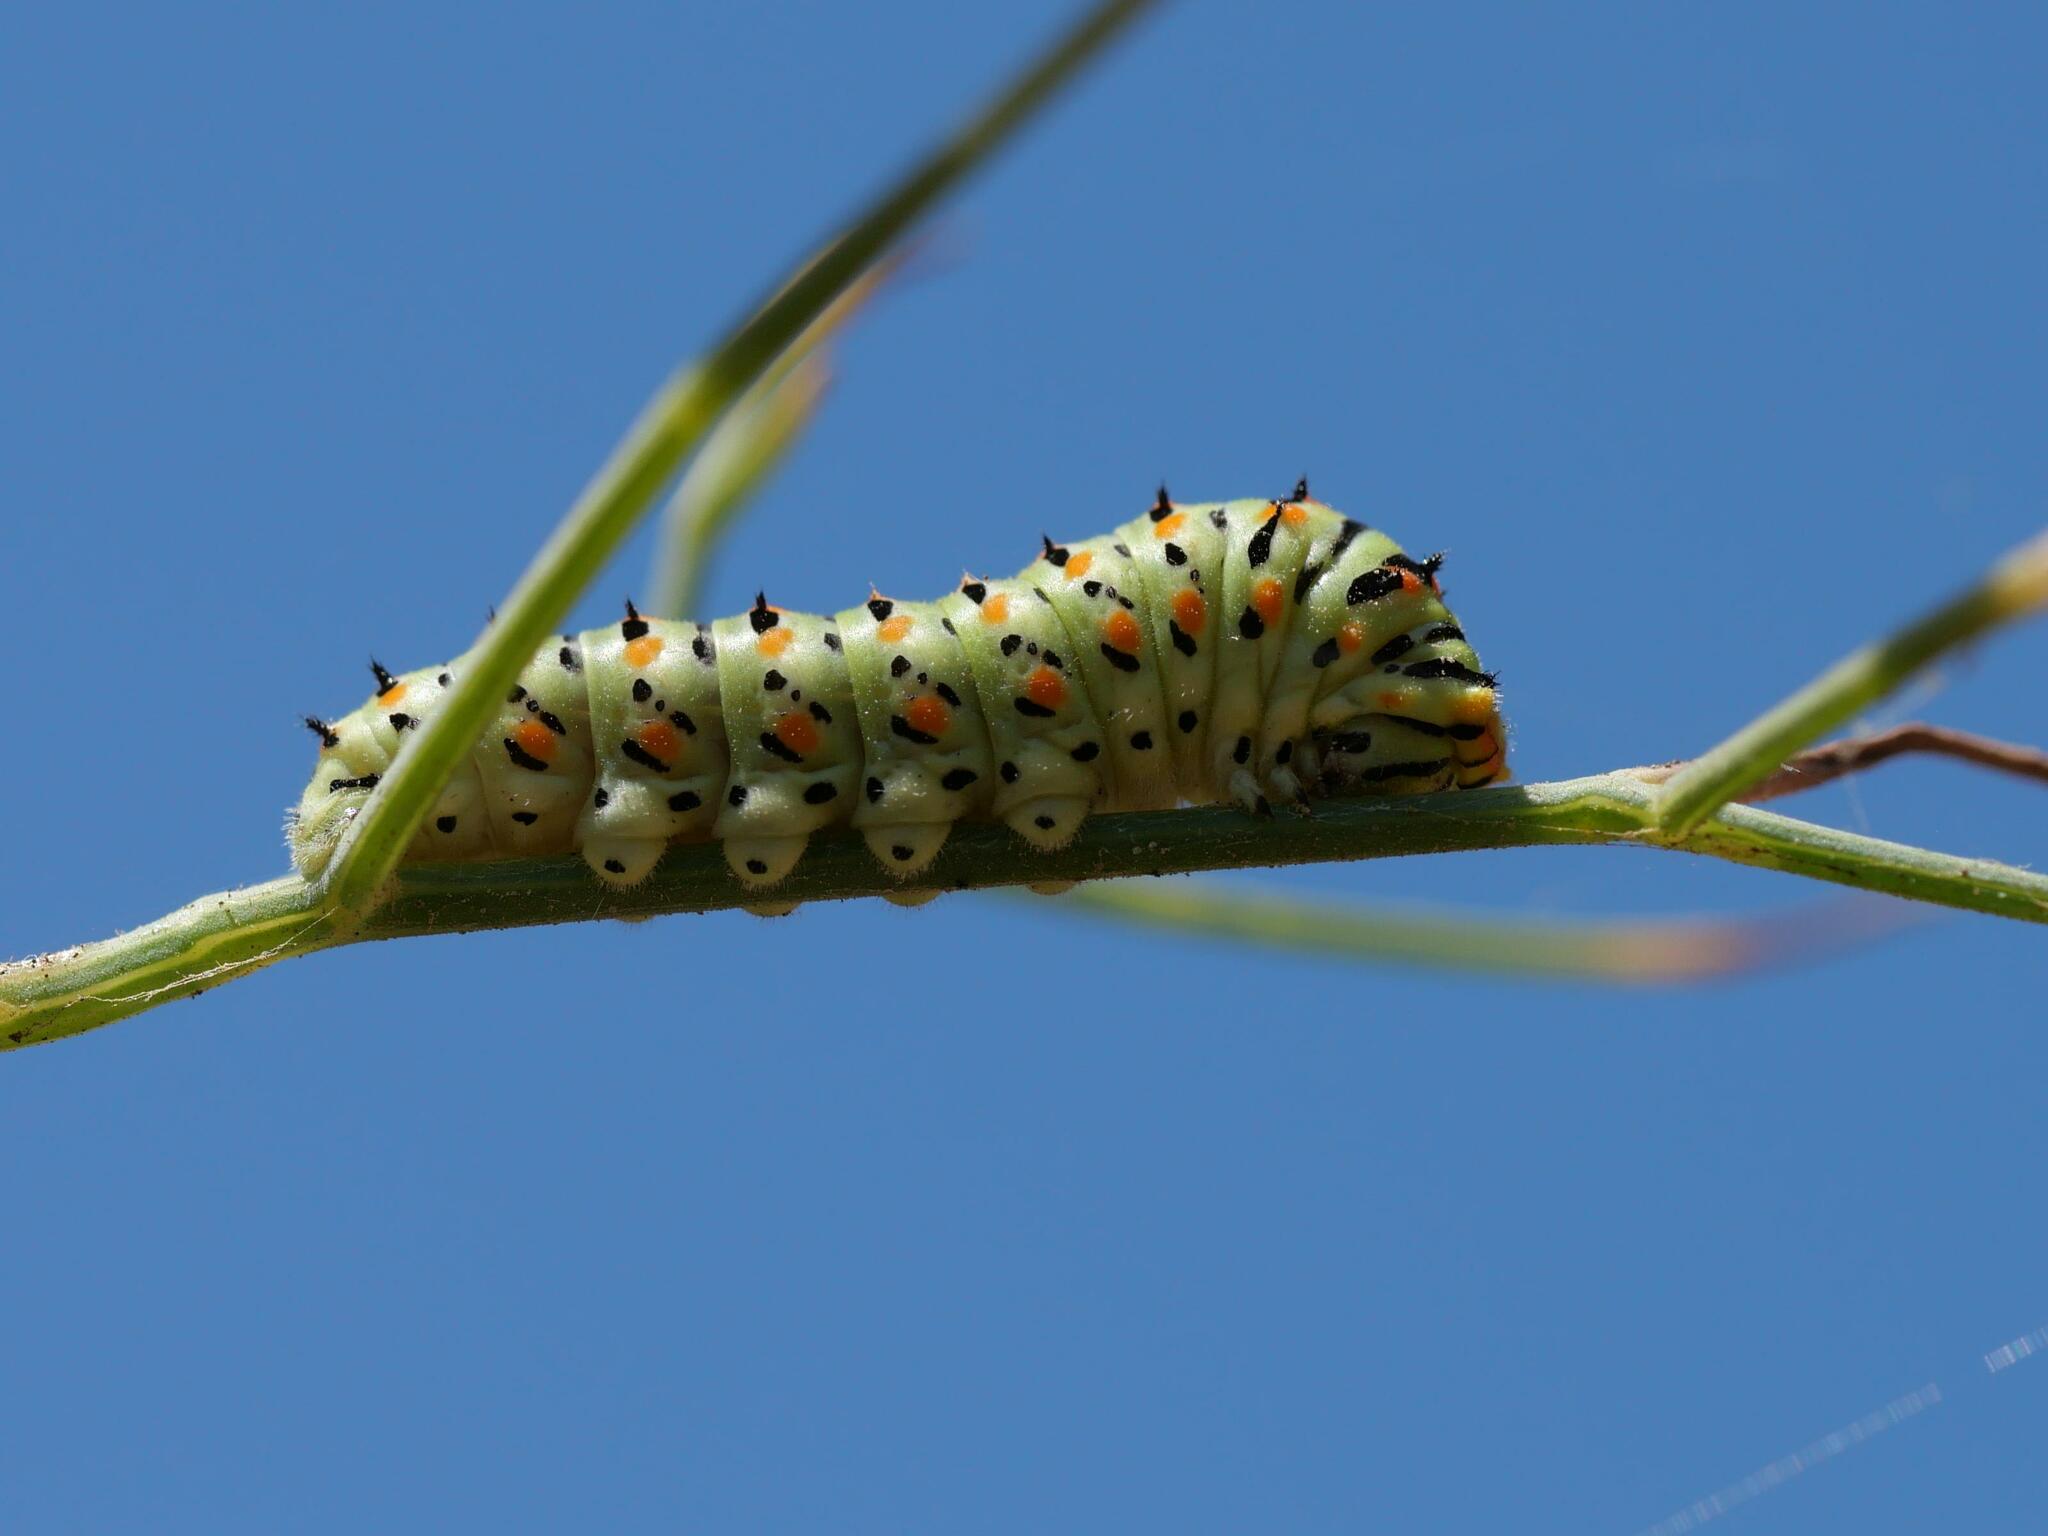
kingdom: Animalia
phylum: Arthropoda
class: Insecta
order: Lepidoptera
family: Papilionidae
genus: Papilio
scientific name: Papilio machaon
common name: Swallowtail
